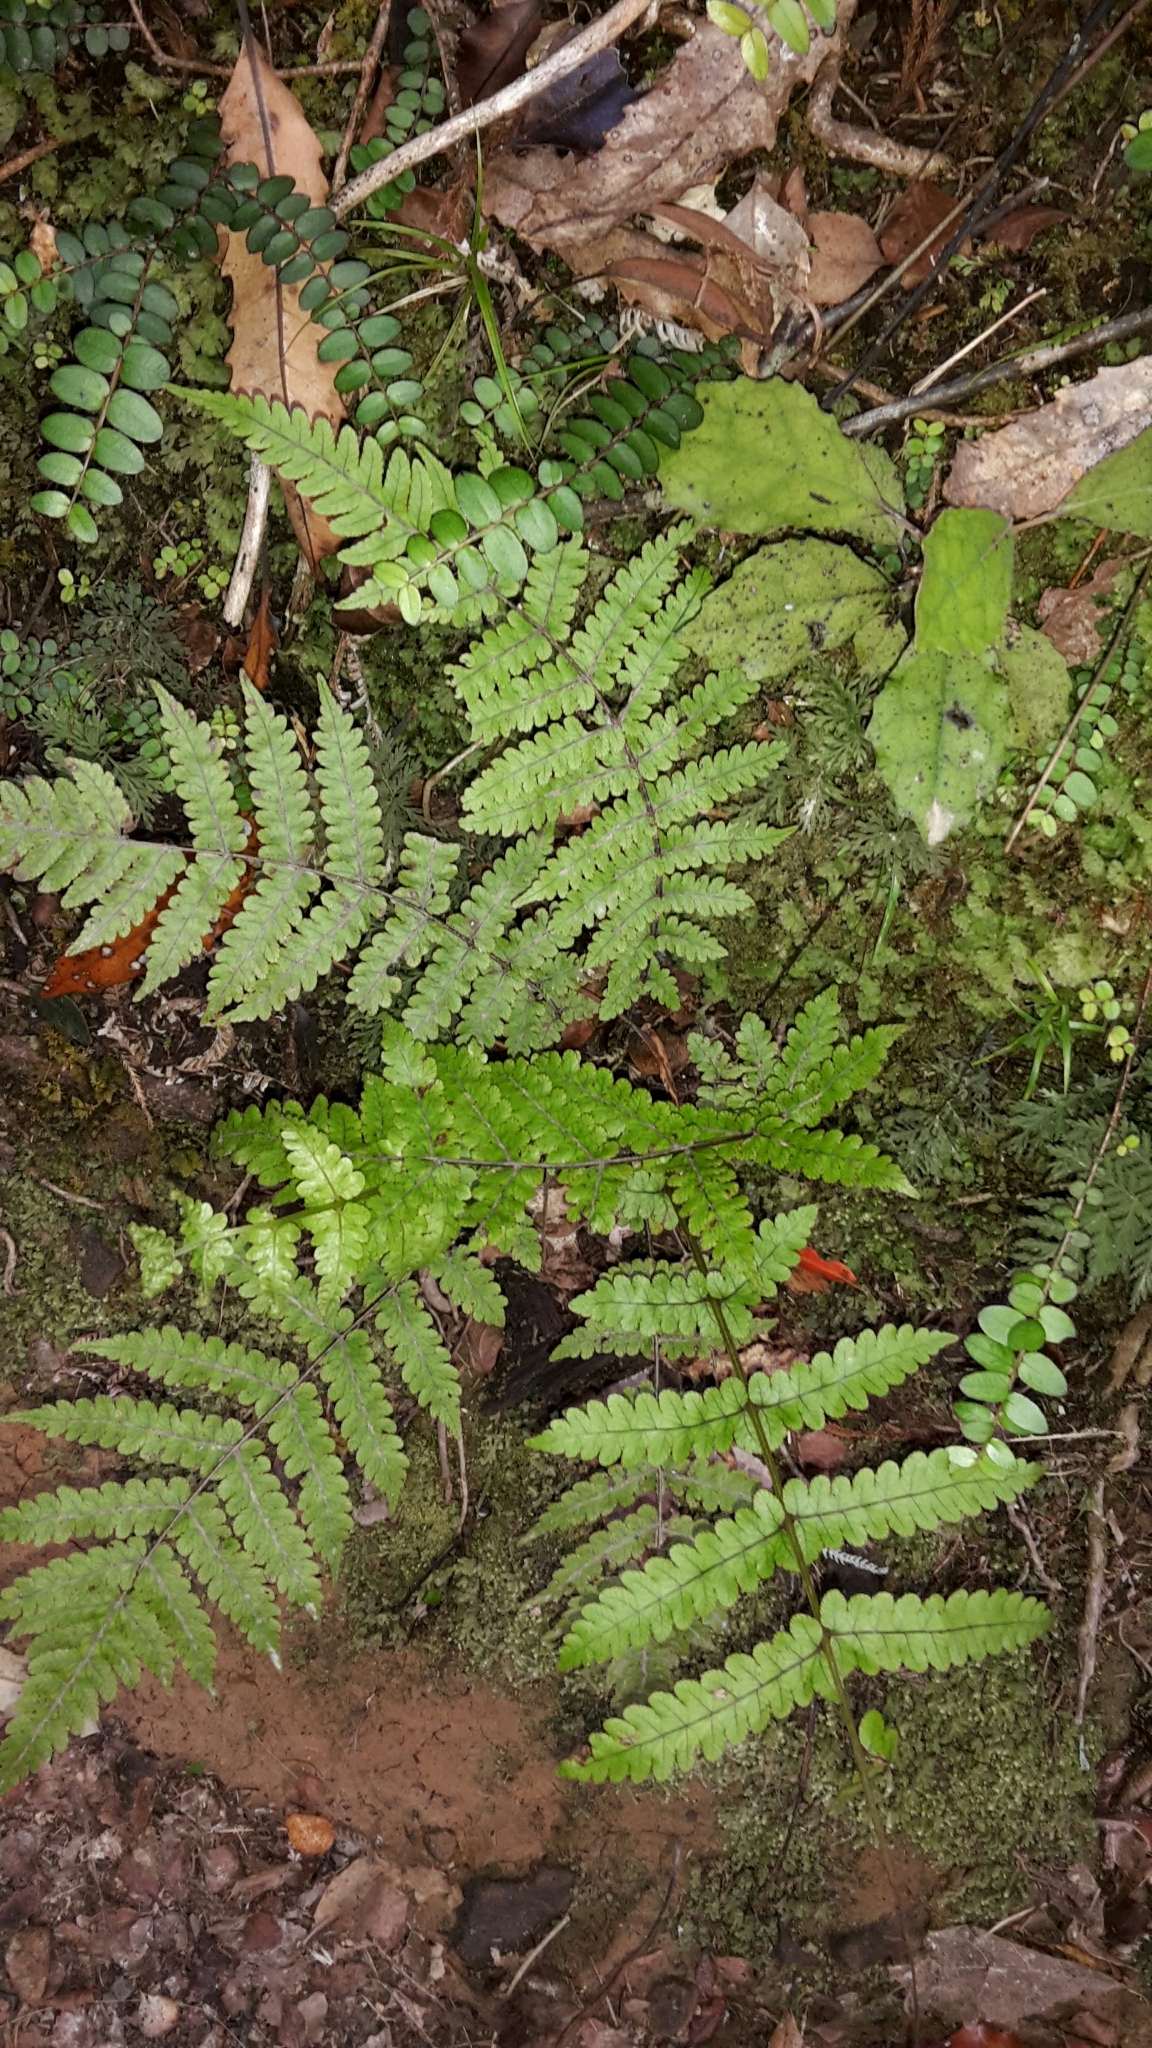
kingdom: Plantae
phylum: Tracheophyta
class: Polypodiopsida
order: Polypodiales
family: Thelypteridaceae
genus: Pakau
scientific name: Pakau pennigera
